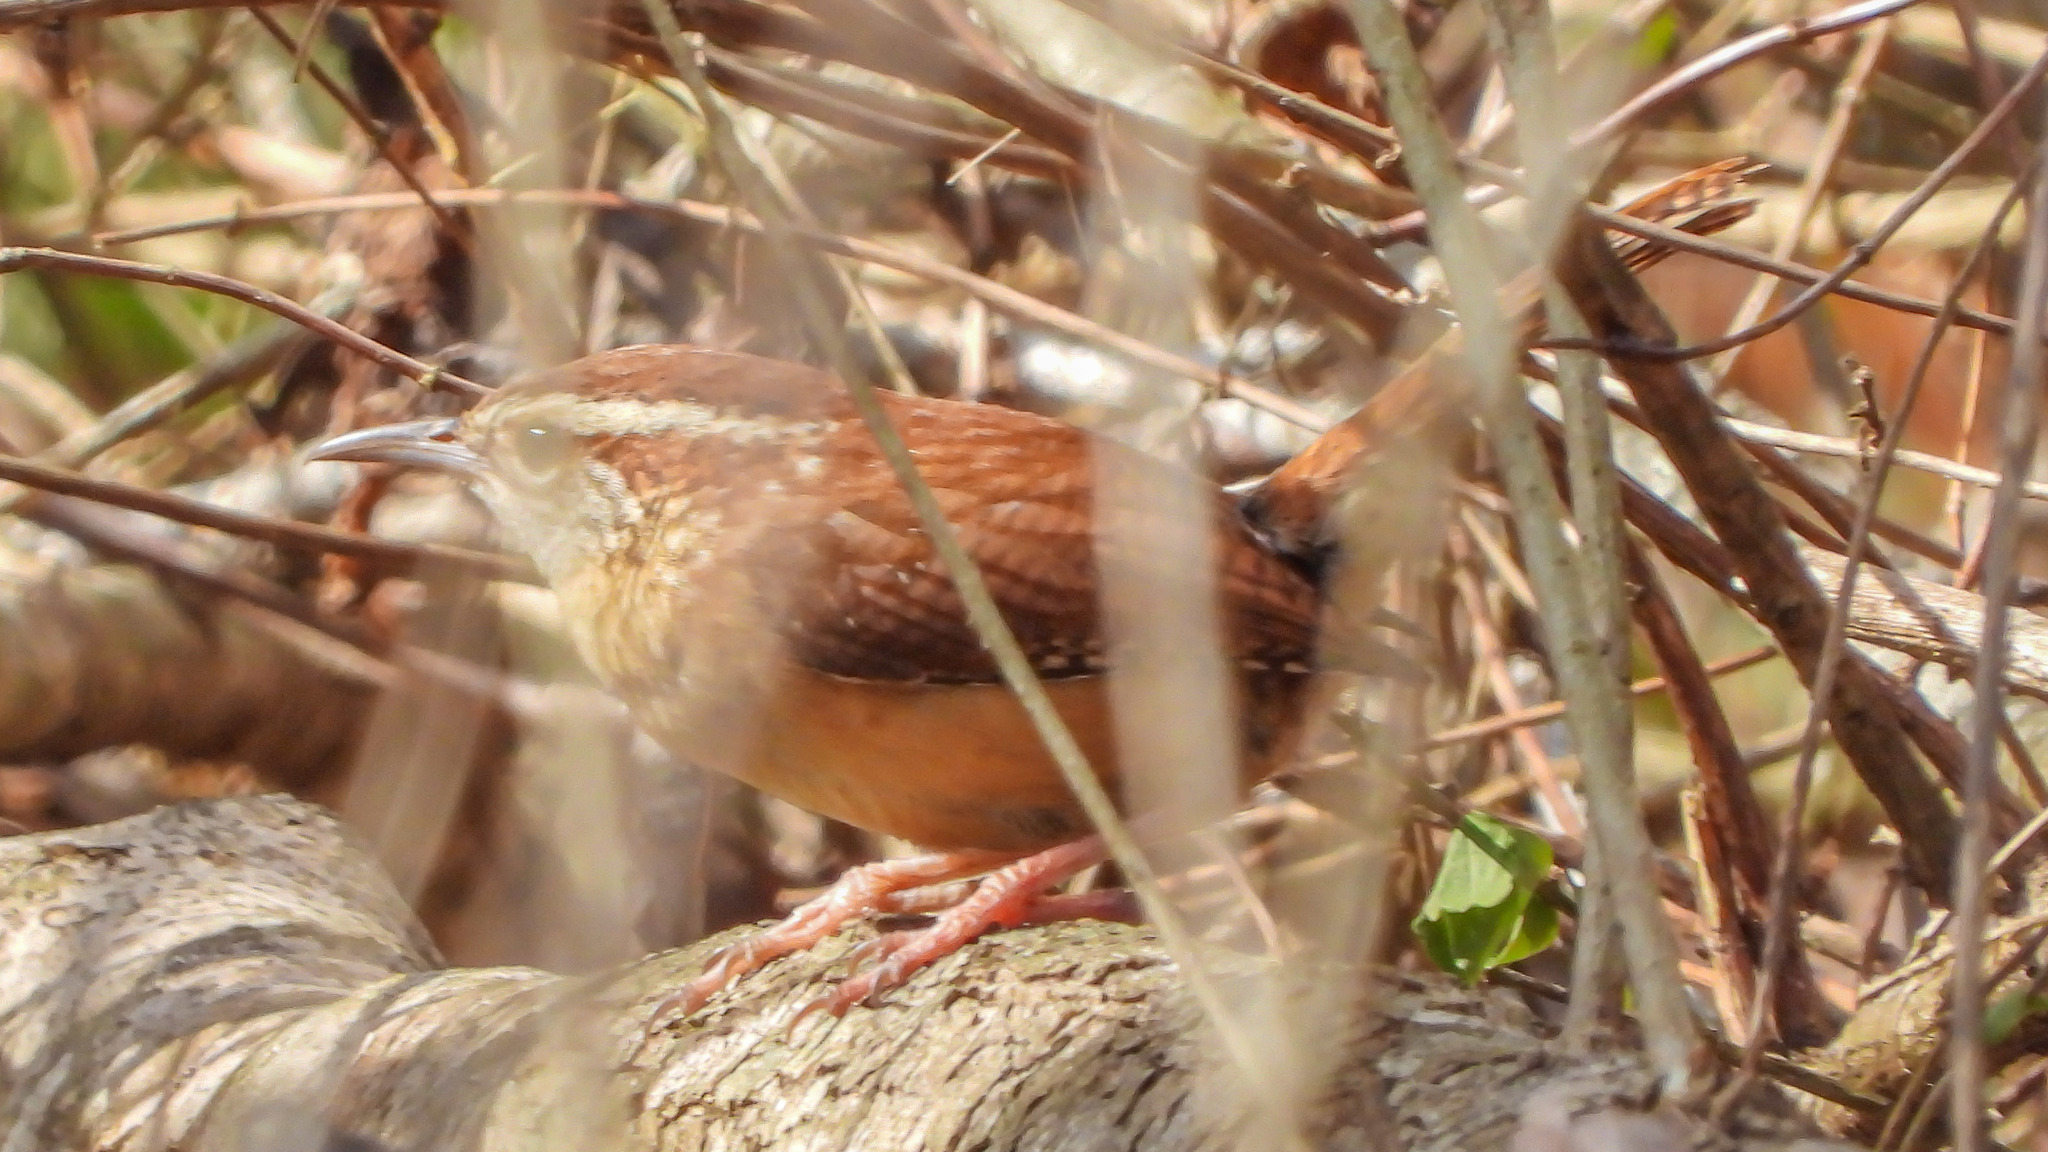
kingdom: Animalia
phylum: Chordata
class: Aves
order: Passeriformes
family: Troglodytidae
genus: Thryothorus
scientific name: Thryothorus ludovicianus
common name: Carolina wren
